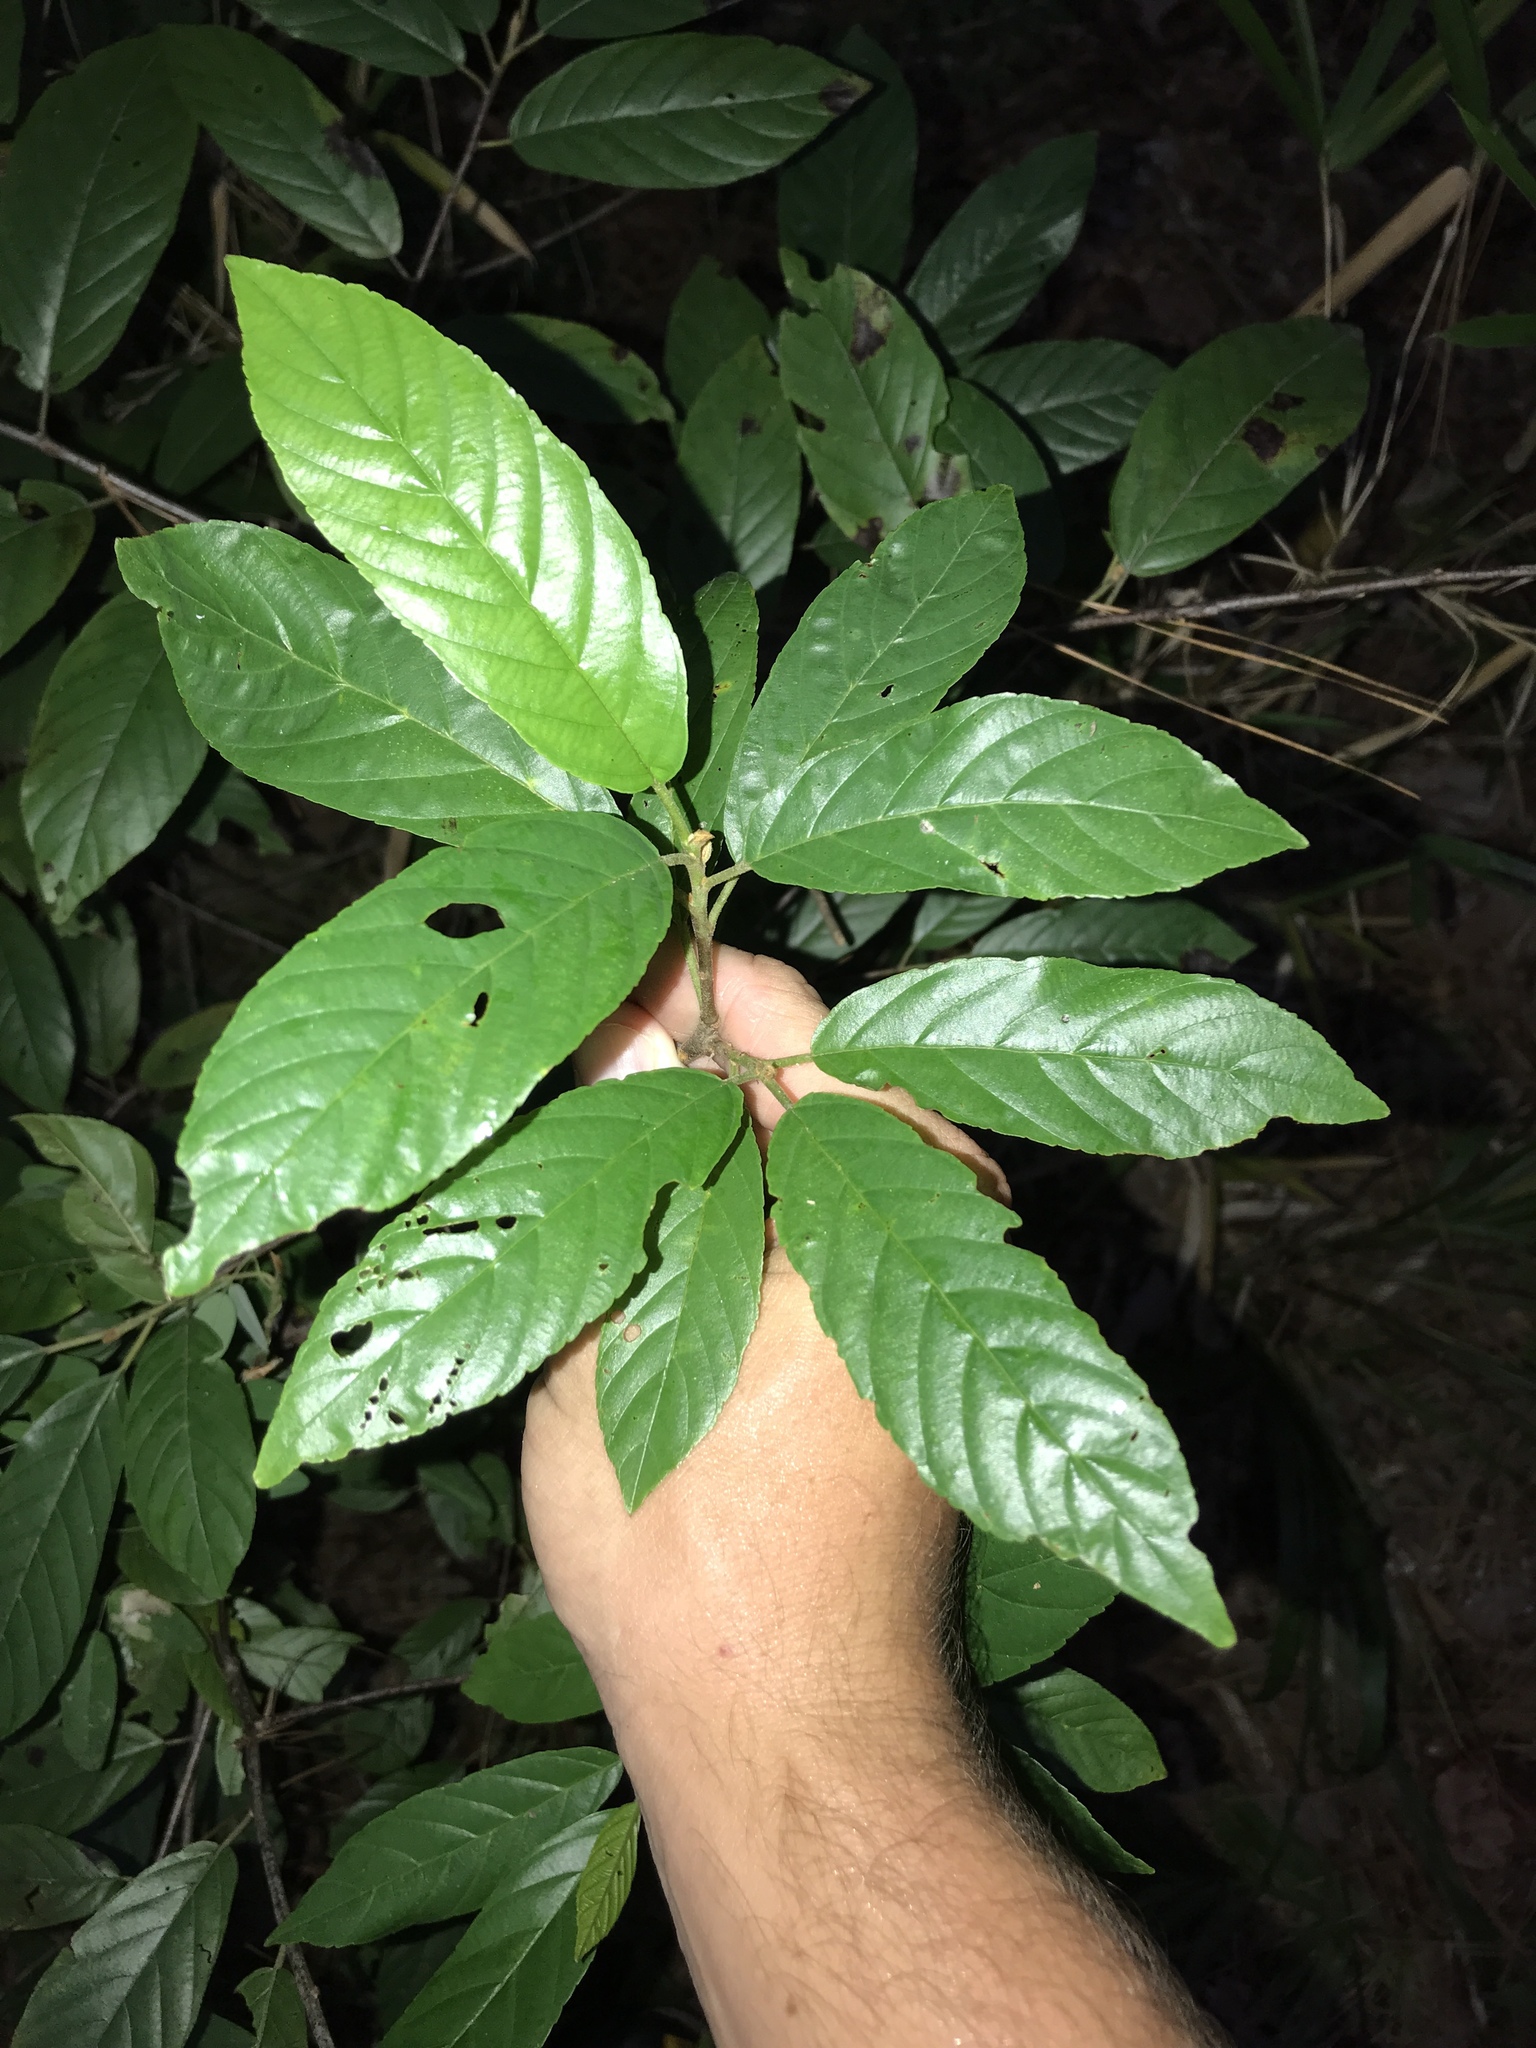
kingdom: Plantae
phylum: Tracheophyta
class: Magnoliopsida
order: Rosales
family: Rhamnaceae
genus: Frangula
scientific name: Frangula caroliniana
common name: Carolina buckthorn
